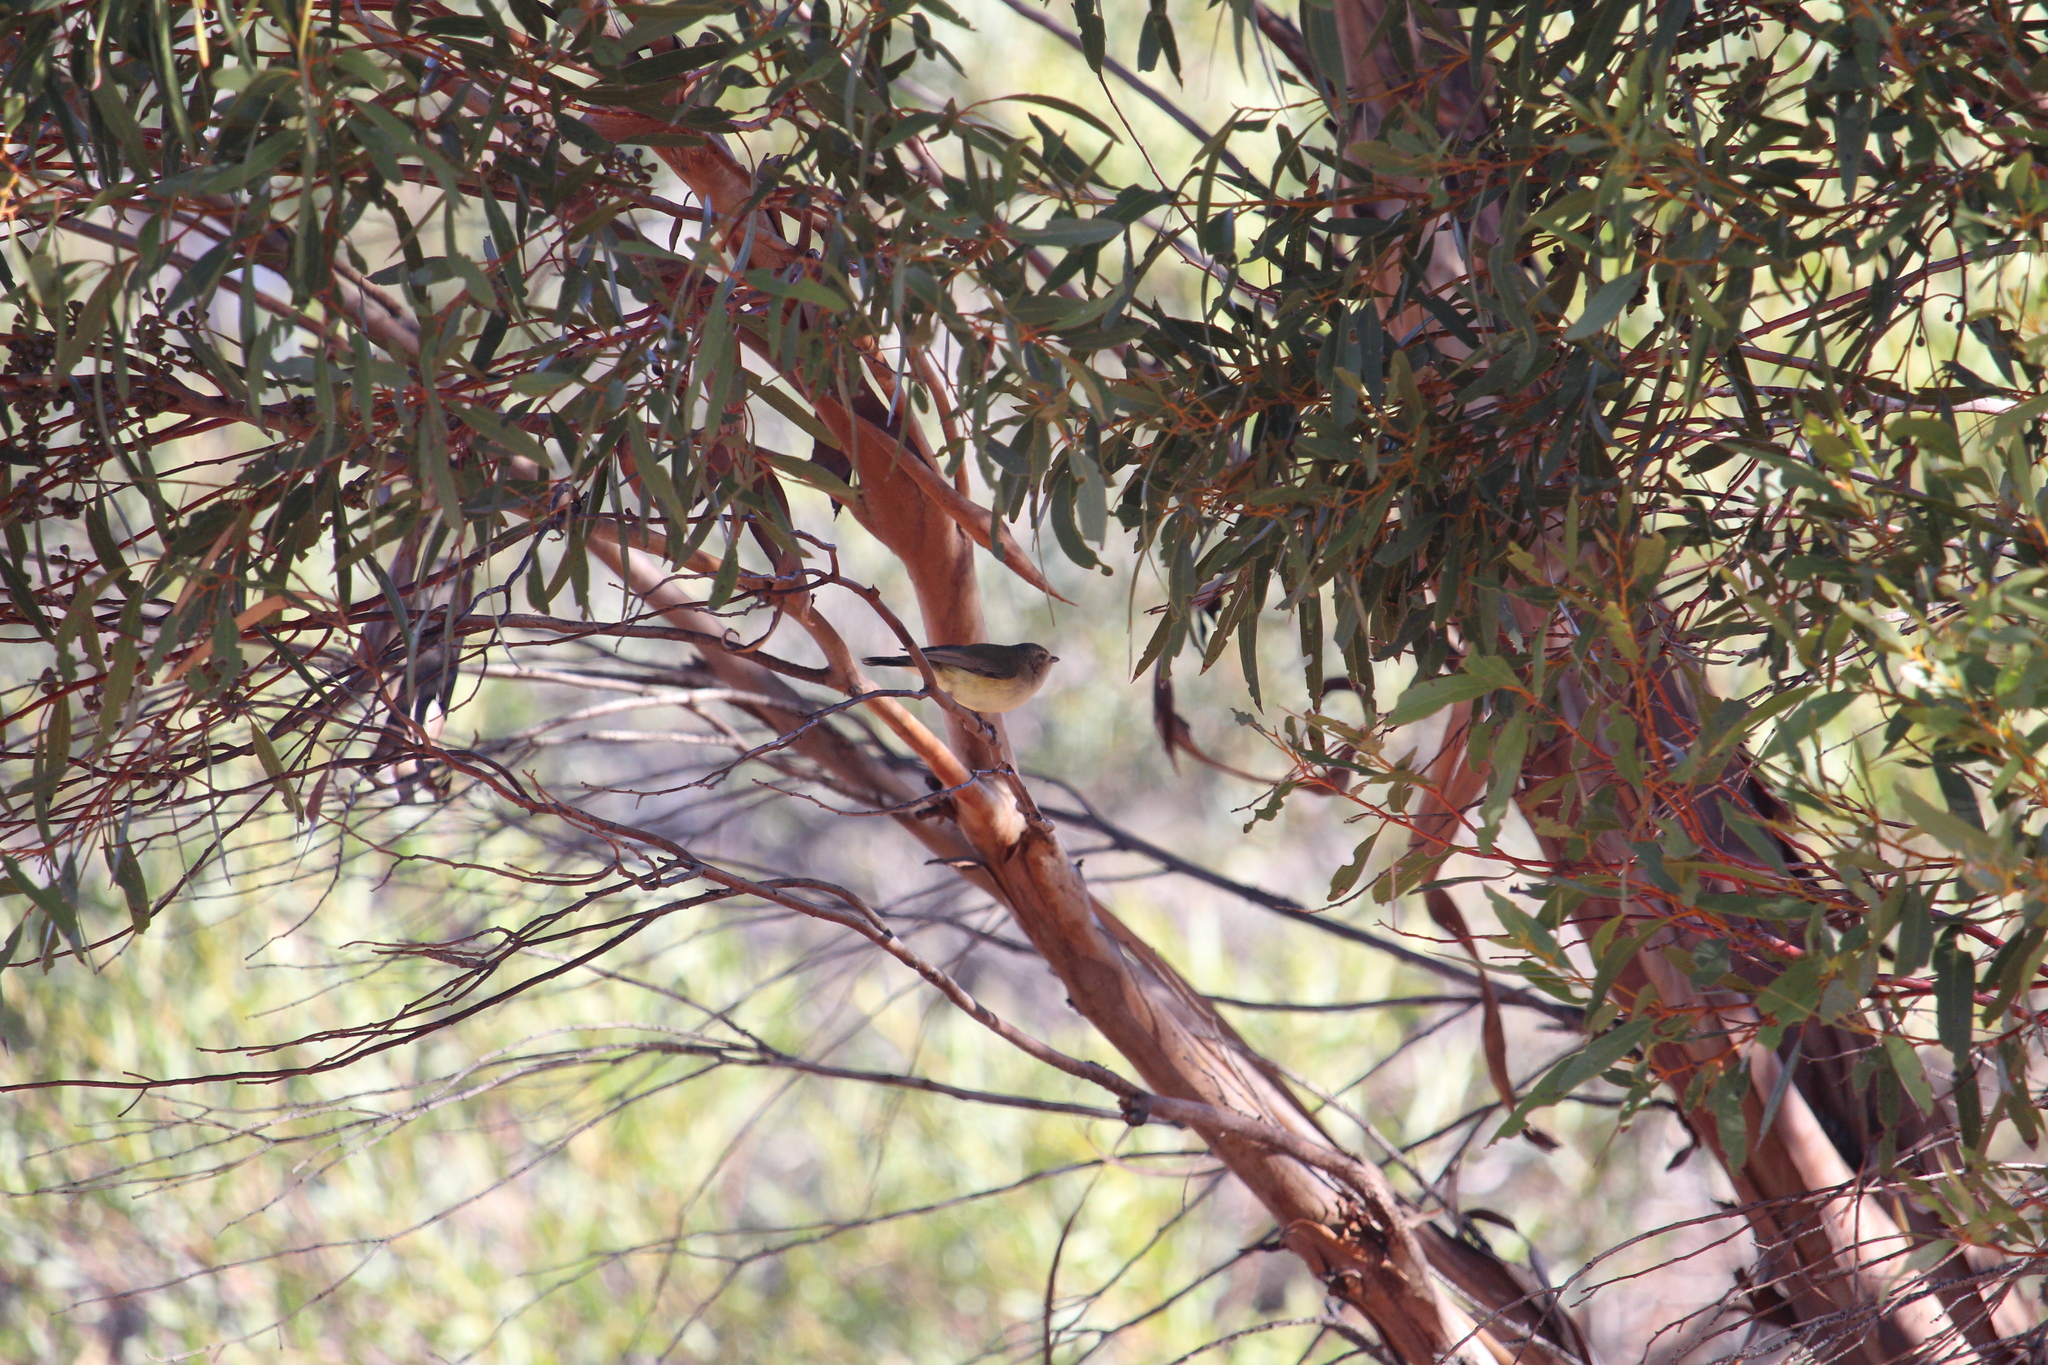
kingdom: Animalia
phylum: Chordata
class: Aves
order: Passeriformes
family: Acanthizidae
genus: Smicrornis
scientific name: Smicrornis brevirostris
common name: Weebill
